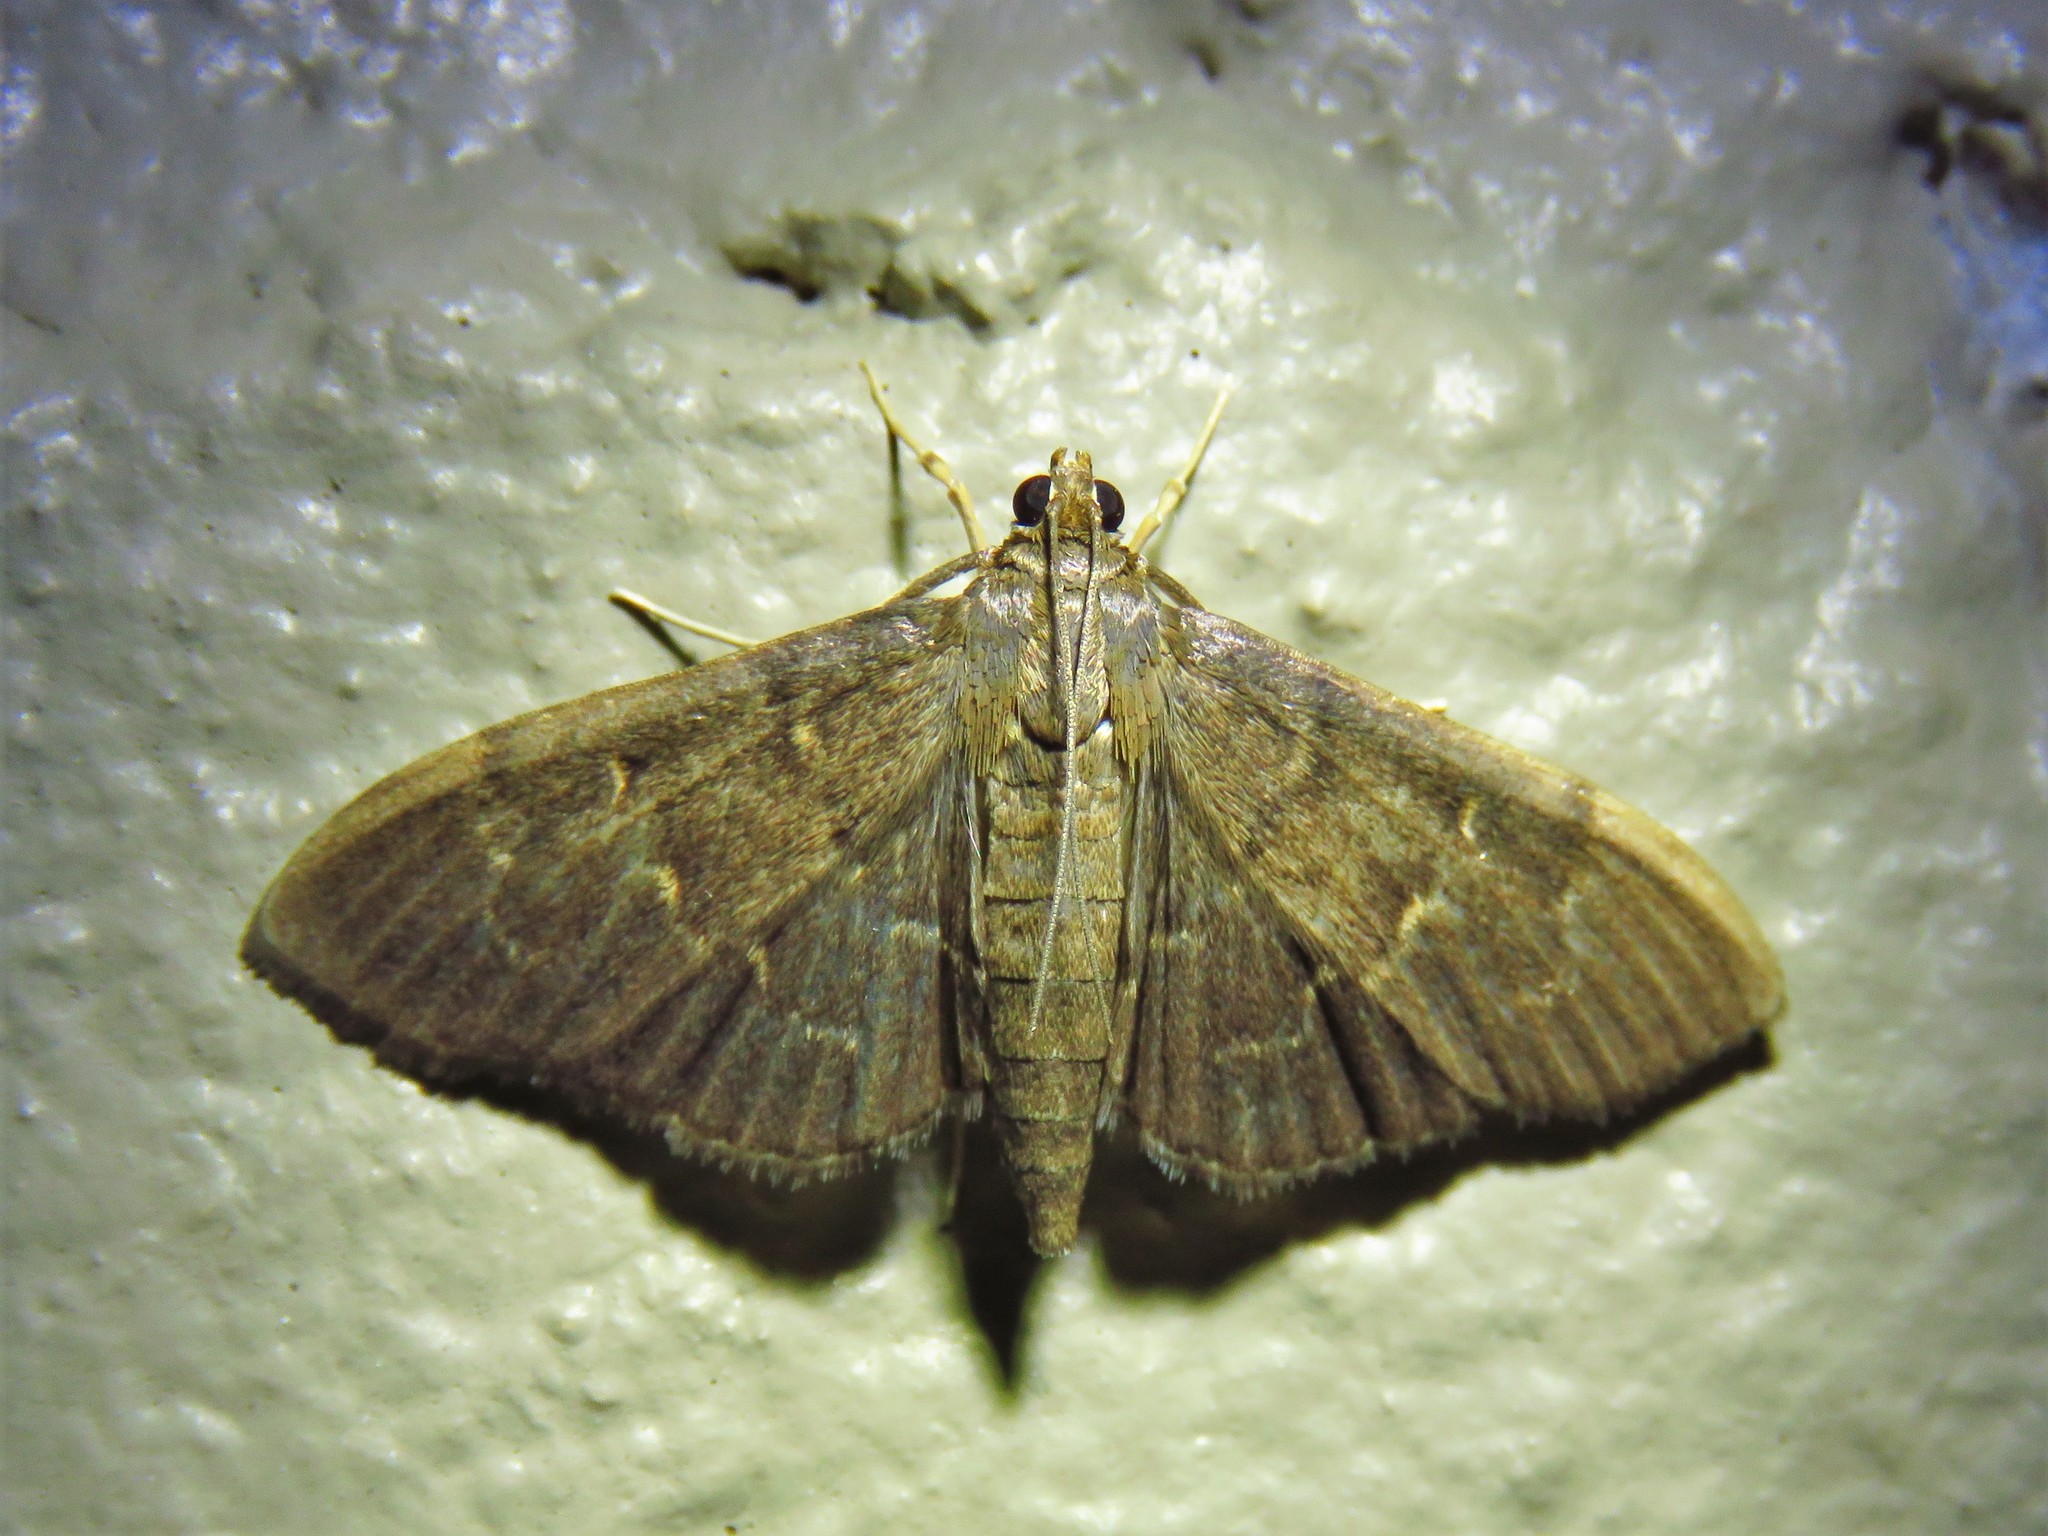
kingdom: Animalia
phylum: Arthropoda
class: Insecta
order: Lepidoptera
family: Crambidae
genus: Pilocrocis
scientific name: Pilocrocis ramentalis
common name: Scraped pilocrocis
